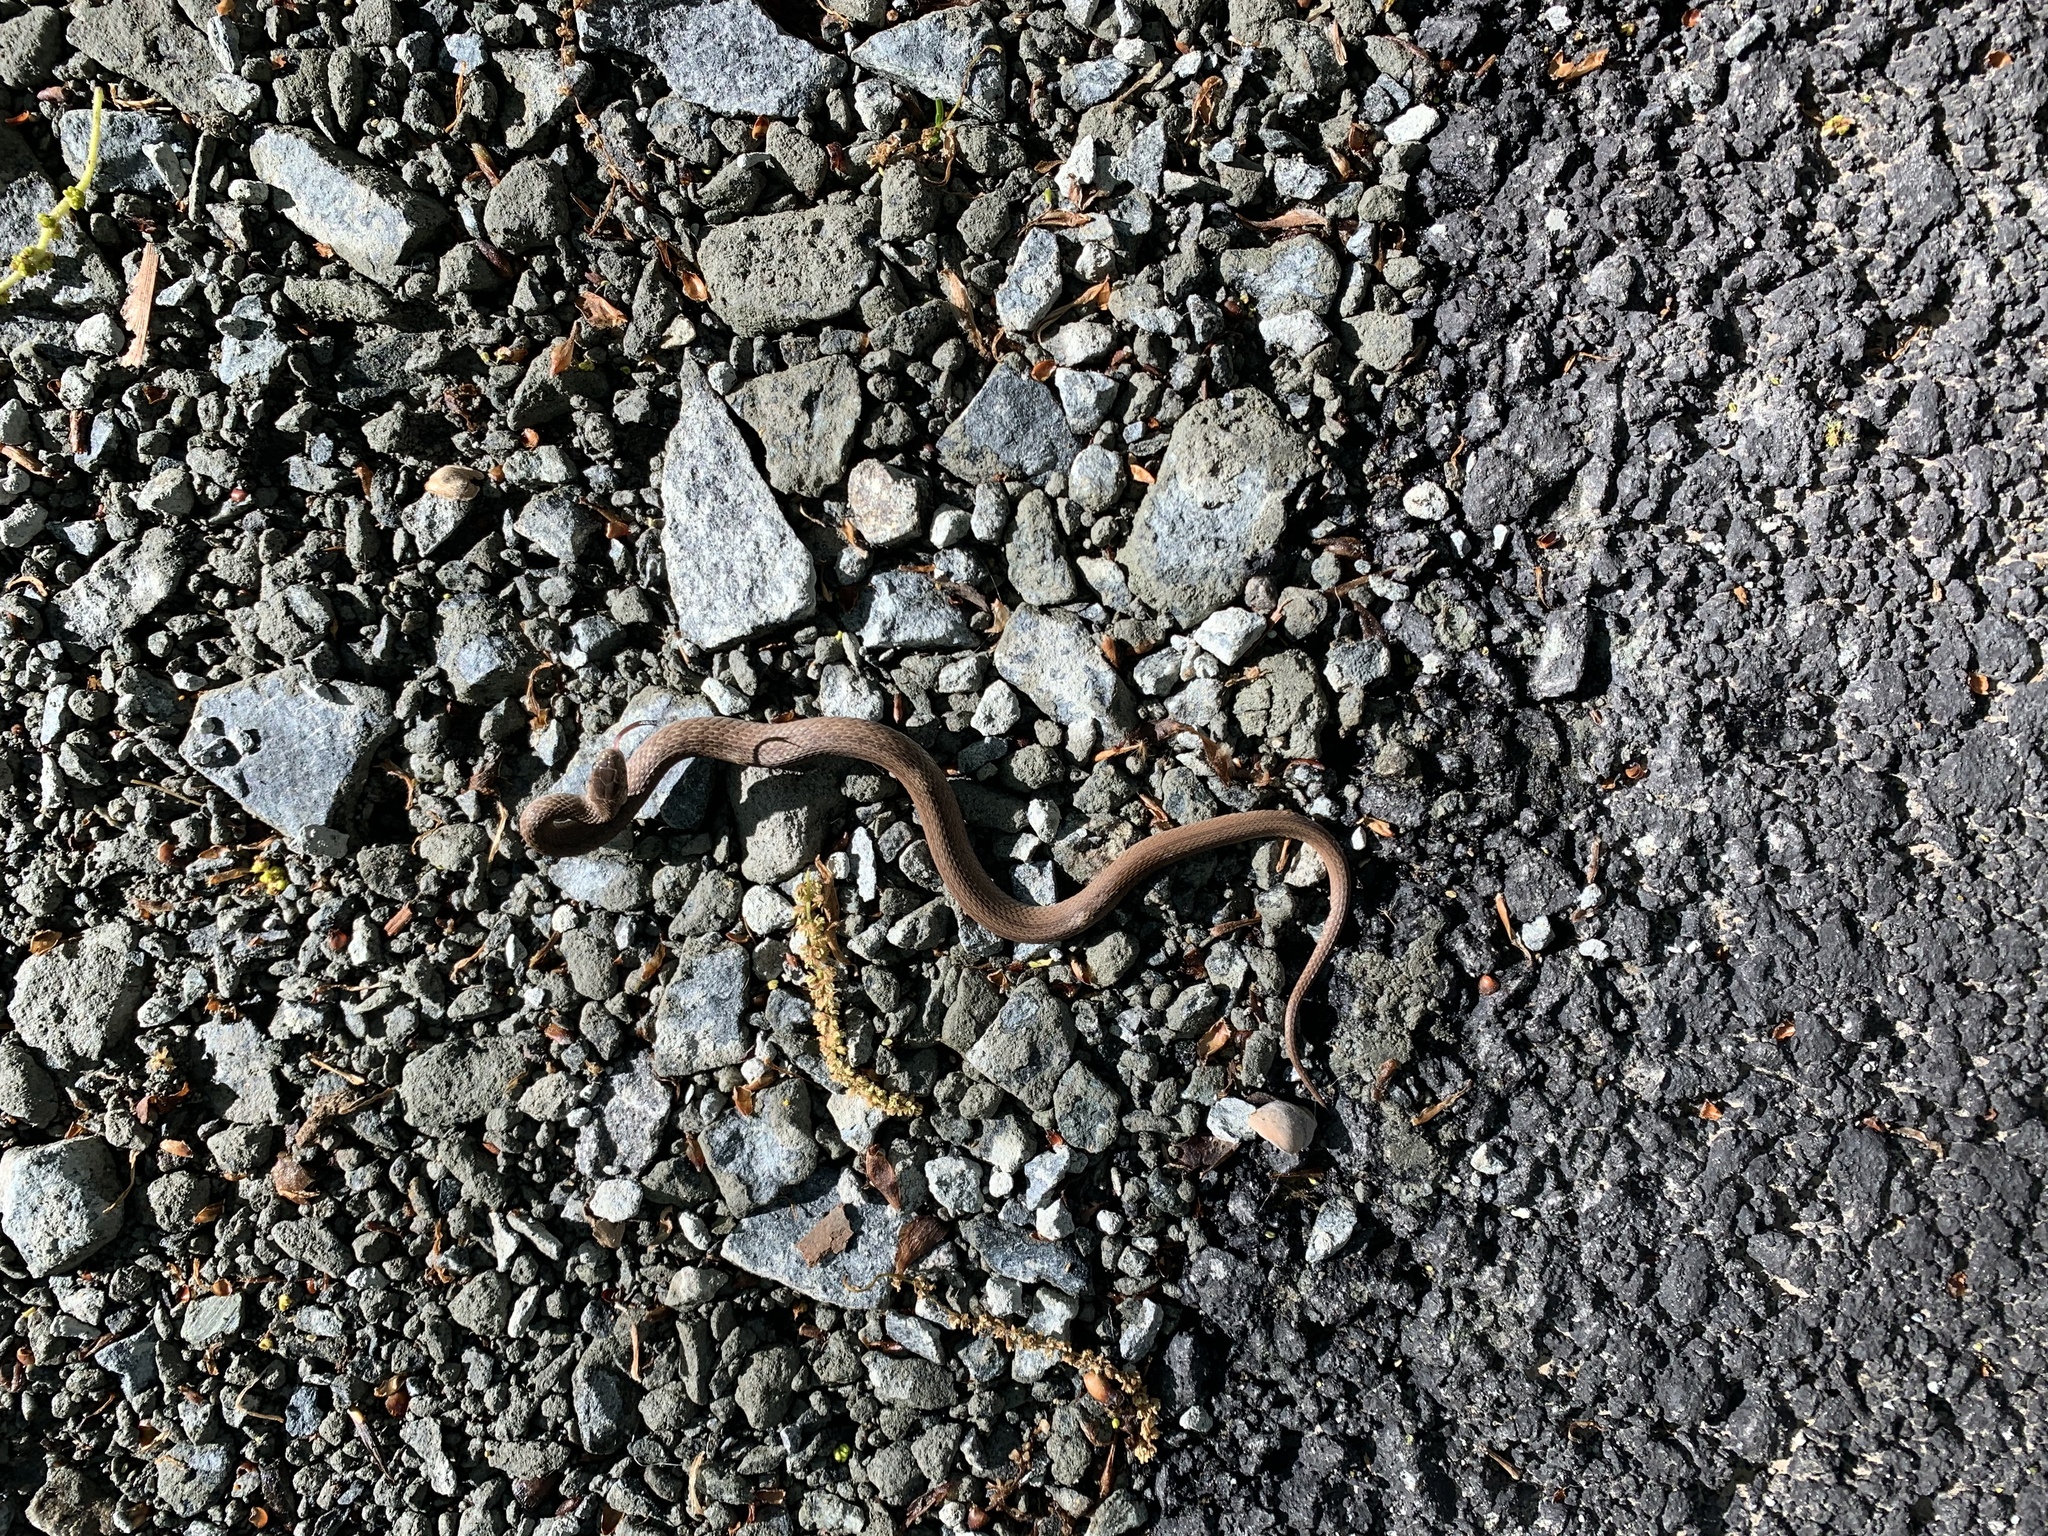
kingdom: Animalia
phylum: Chordata
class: Squamata
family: Colubridae
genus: Storeria
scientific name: Storeria dekayi
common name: (dekay’s) brown snake
